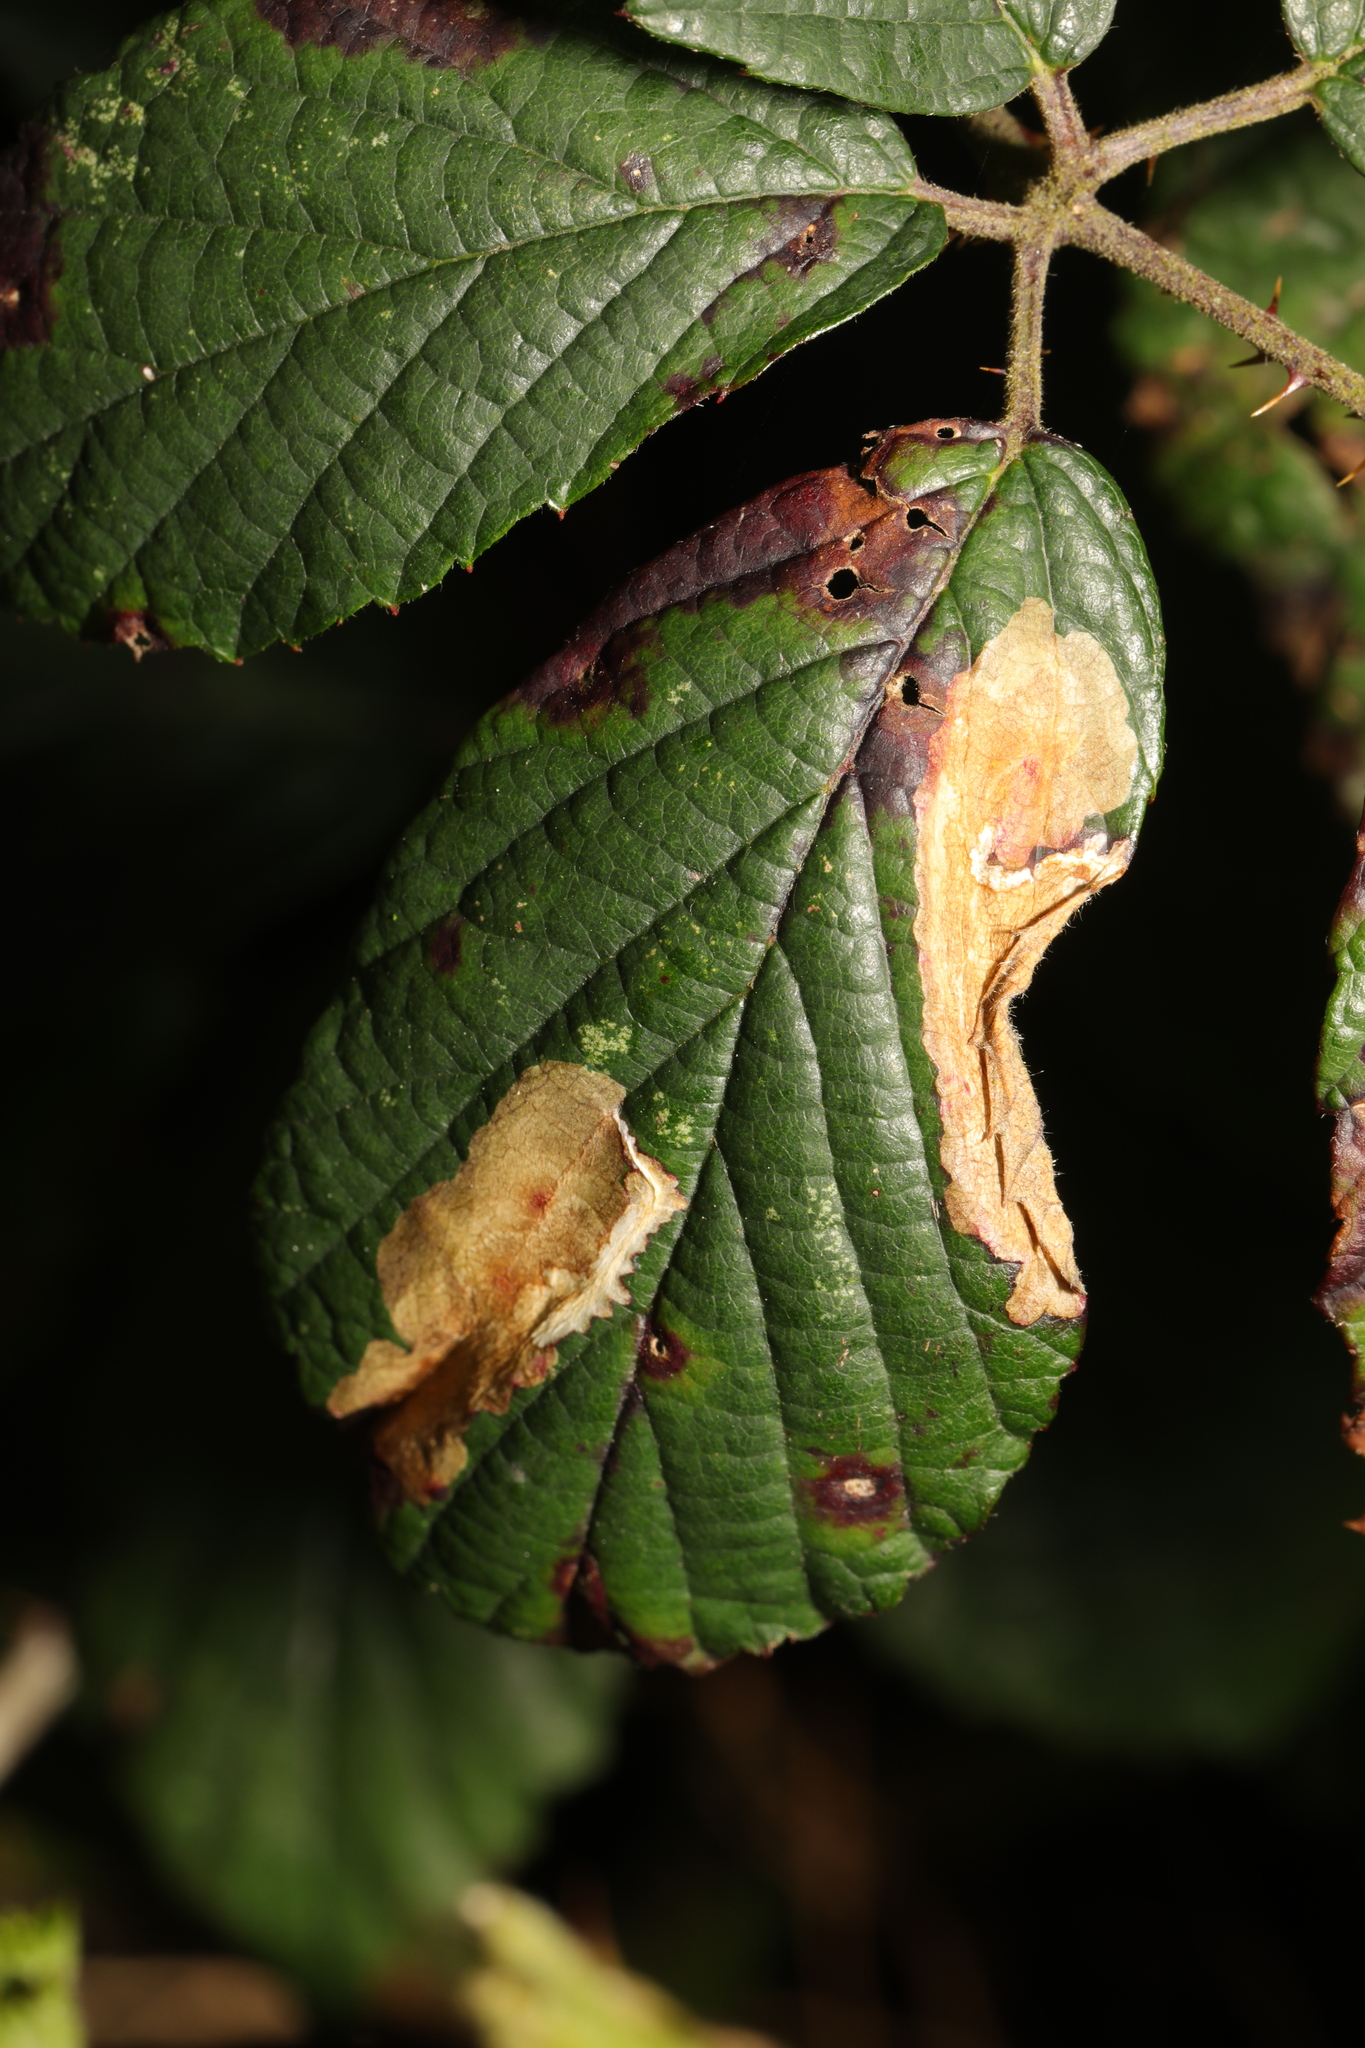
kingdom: Animalia
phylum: Arthropoda
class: Insecta
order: Lepidoptera
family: Tischeriidae
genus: Coptotriche
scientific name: Coptotriche marginea
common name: Bordered carl
